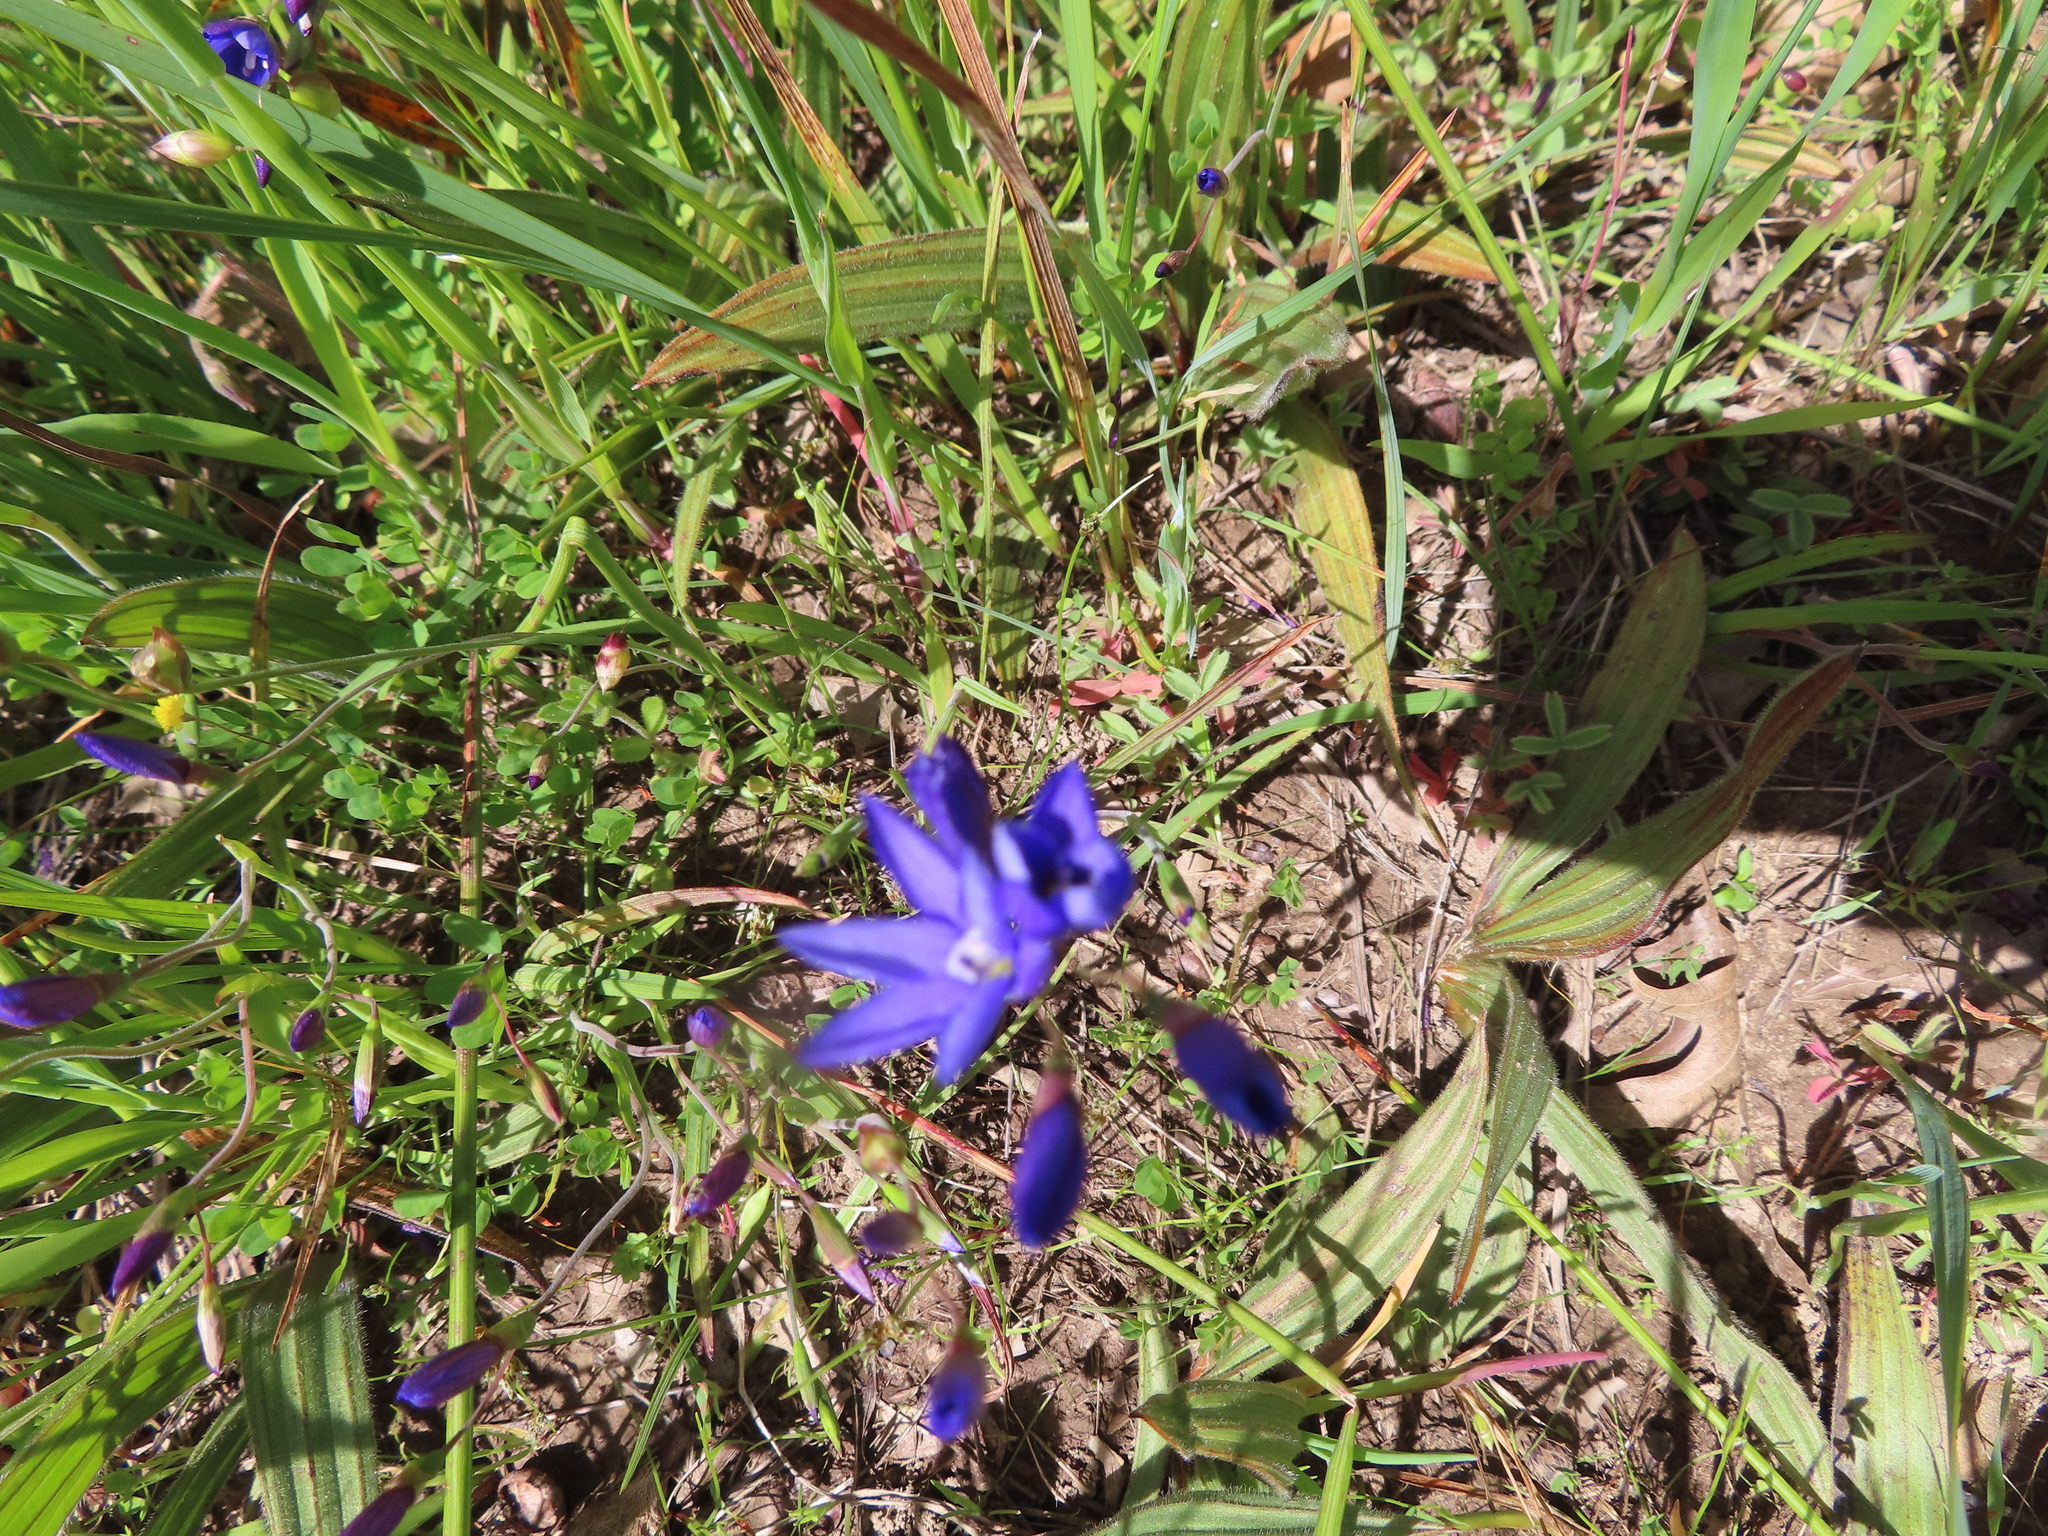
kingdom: Plantae
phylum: Tracheophyta
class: Liliopsida
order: Asparagales
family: Iridaceae
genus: Geissorhiza
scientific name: Geissorhiza aspera
